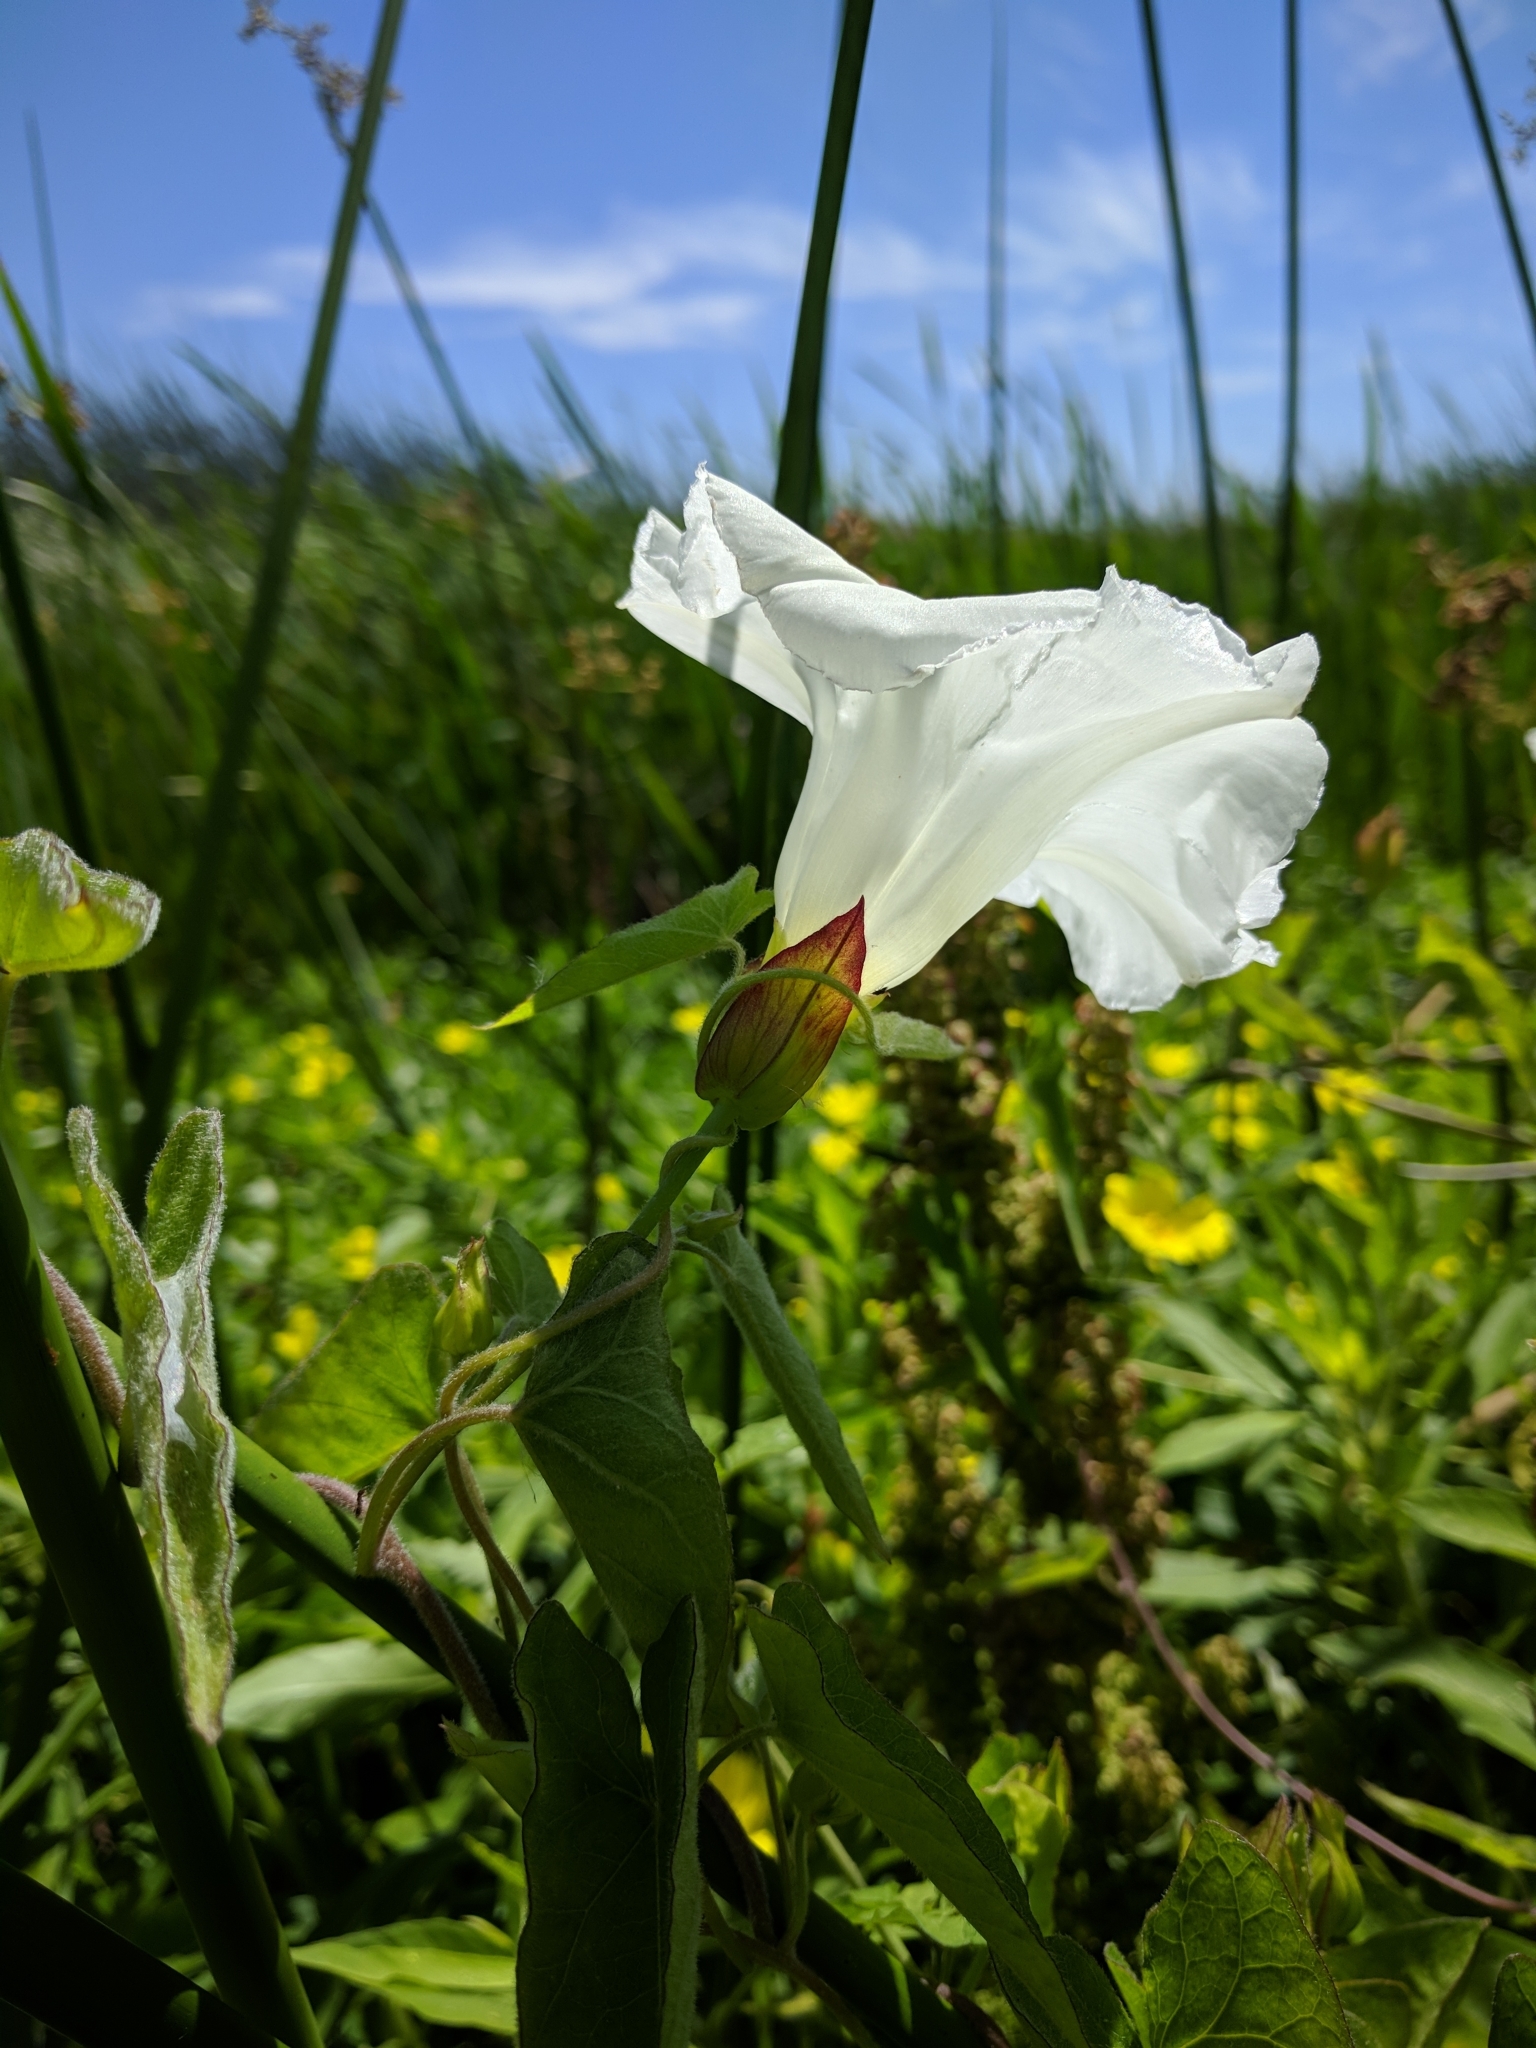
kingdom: Plantae
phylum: Tracheophyta
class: Magnoliopsida
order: Solanales
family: Convolvulaceae
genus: Calystegia
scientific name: Calystegia sepium
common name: Hedge bindweed
